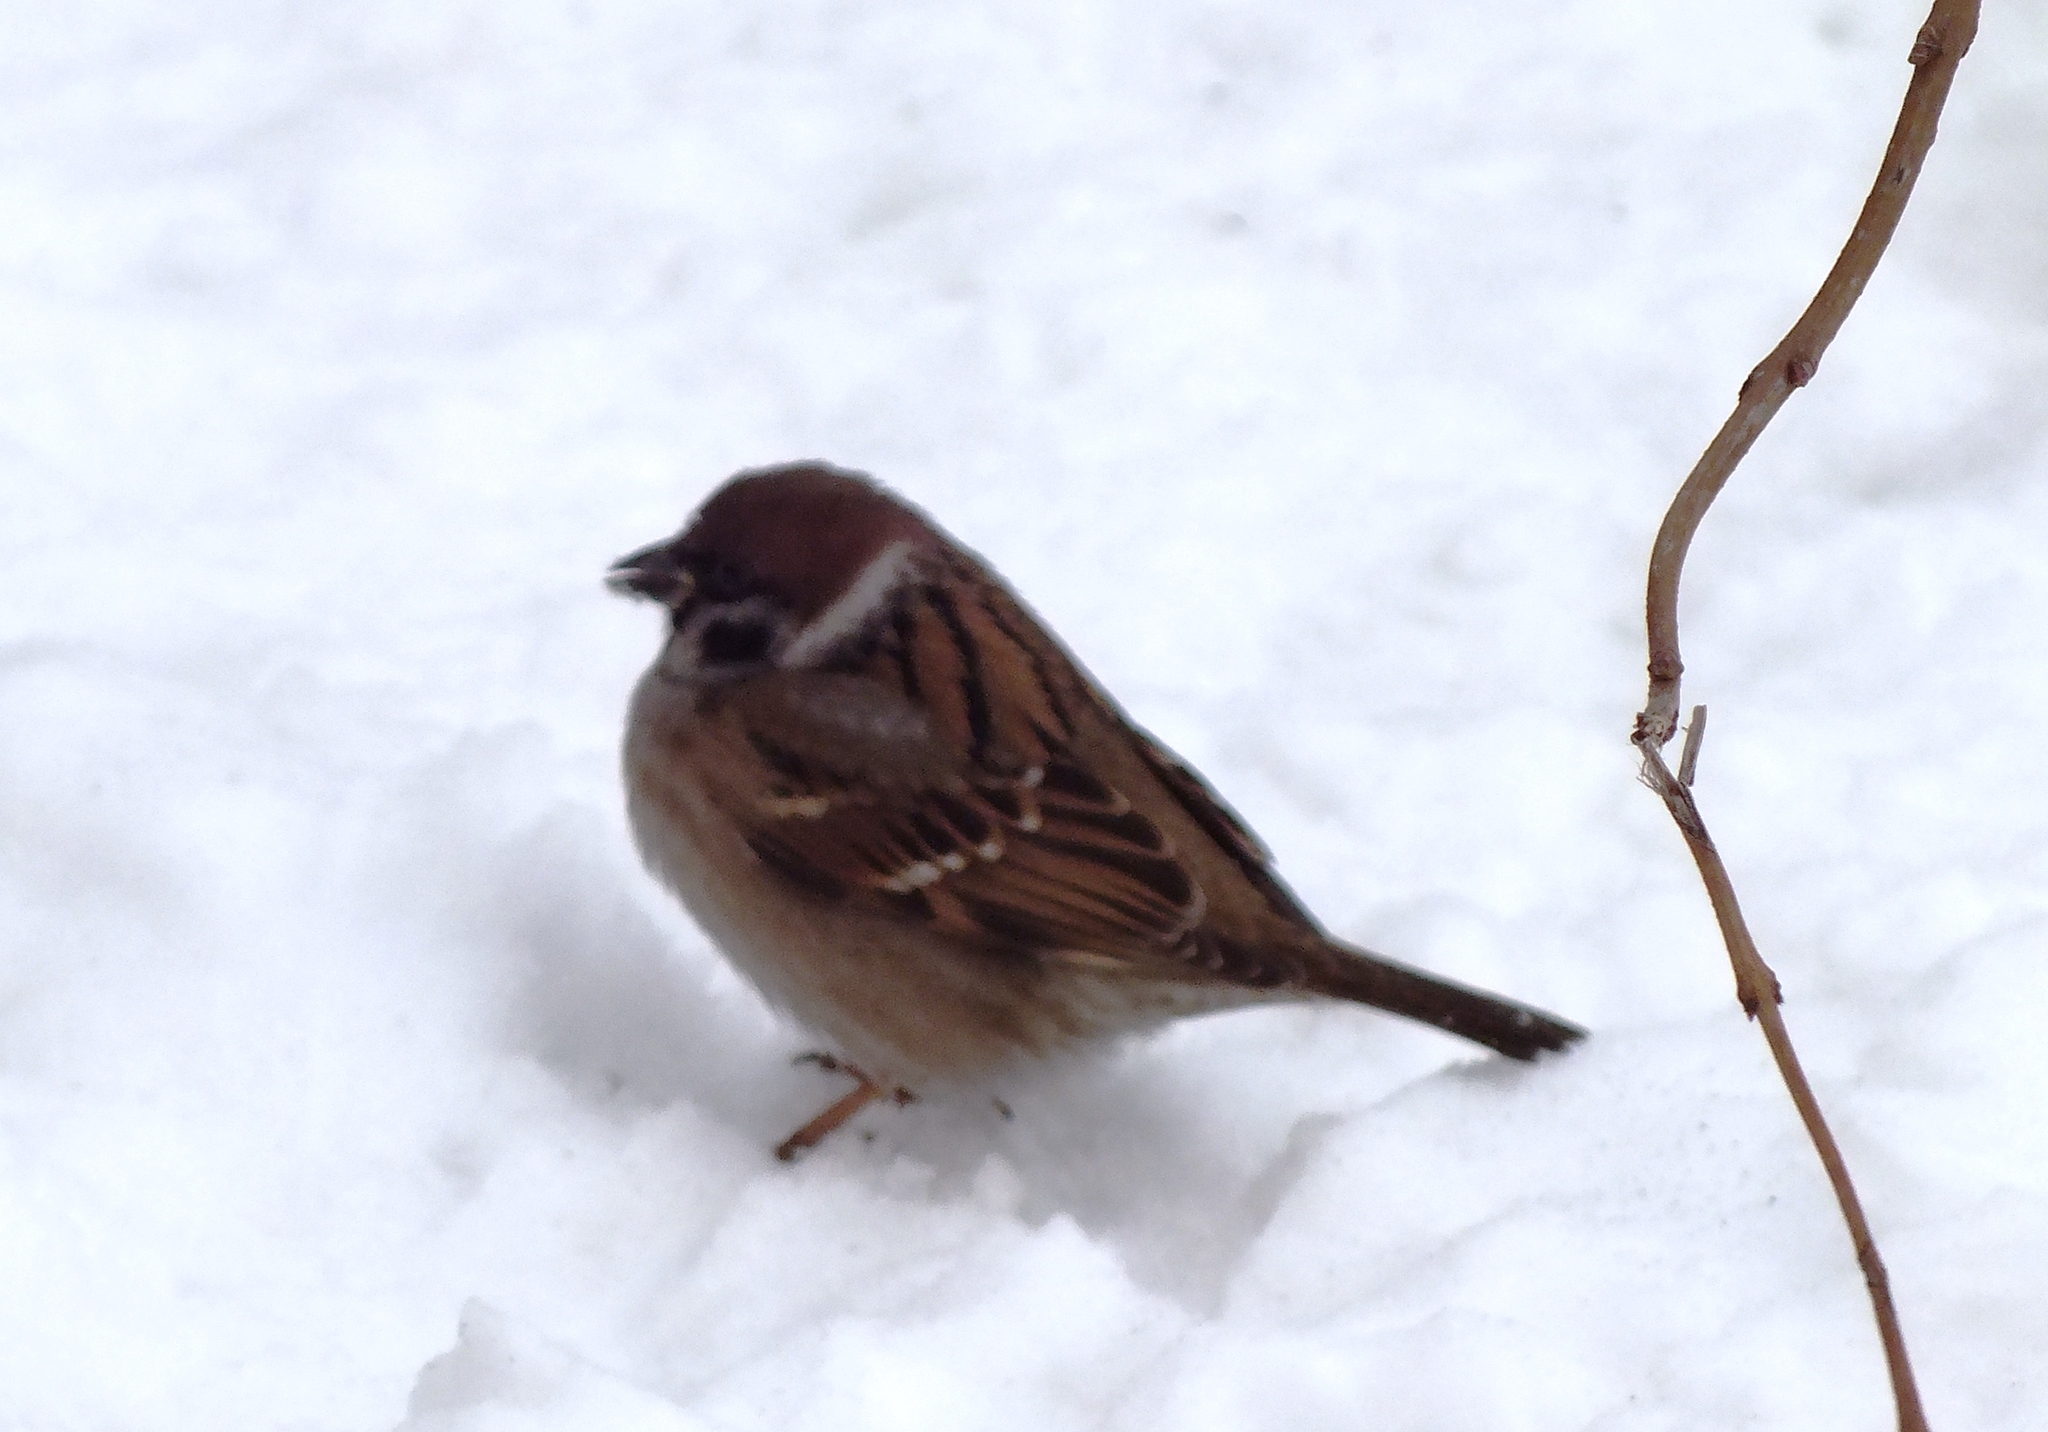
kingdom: Animalia
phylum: Chordata
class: Aves
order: Passeriformes
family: Passeridae
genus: Passer
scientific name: Passer montanus
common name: Eurasian tree sparrow
